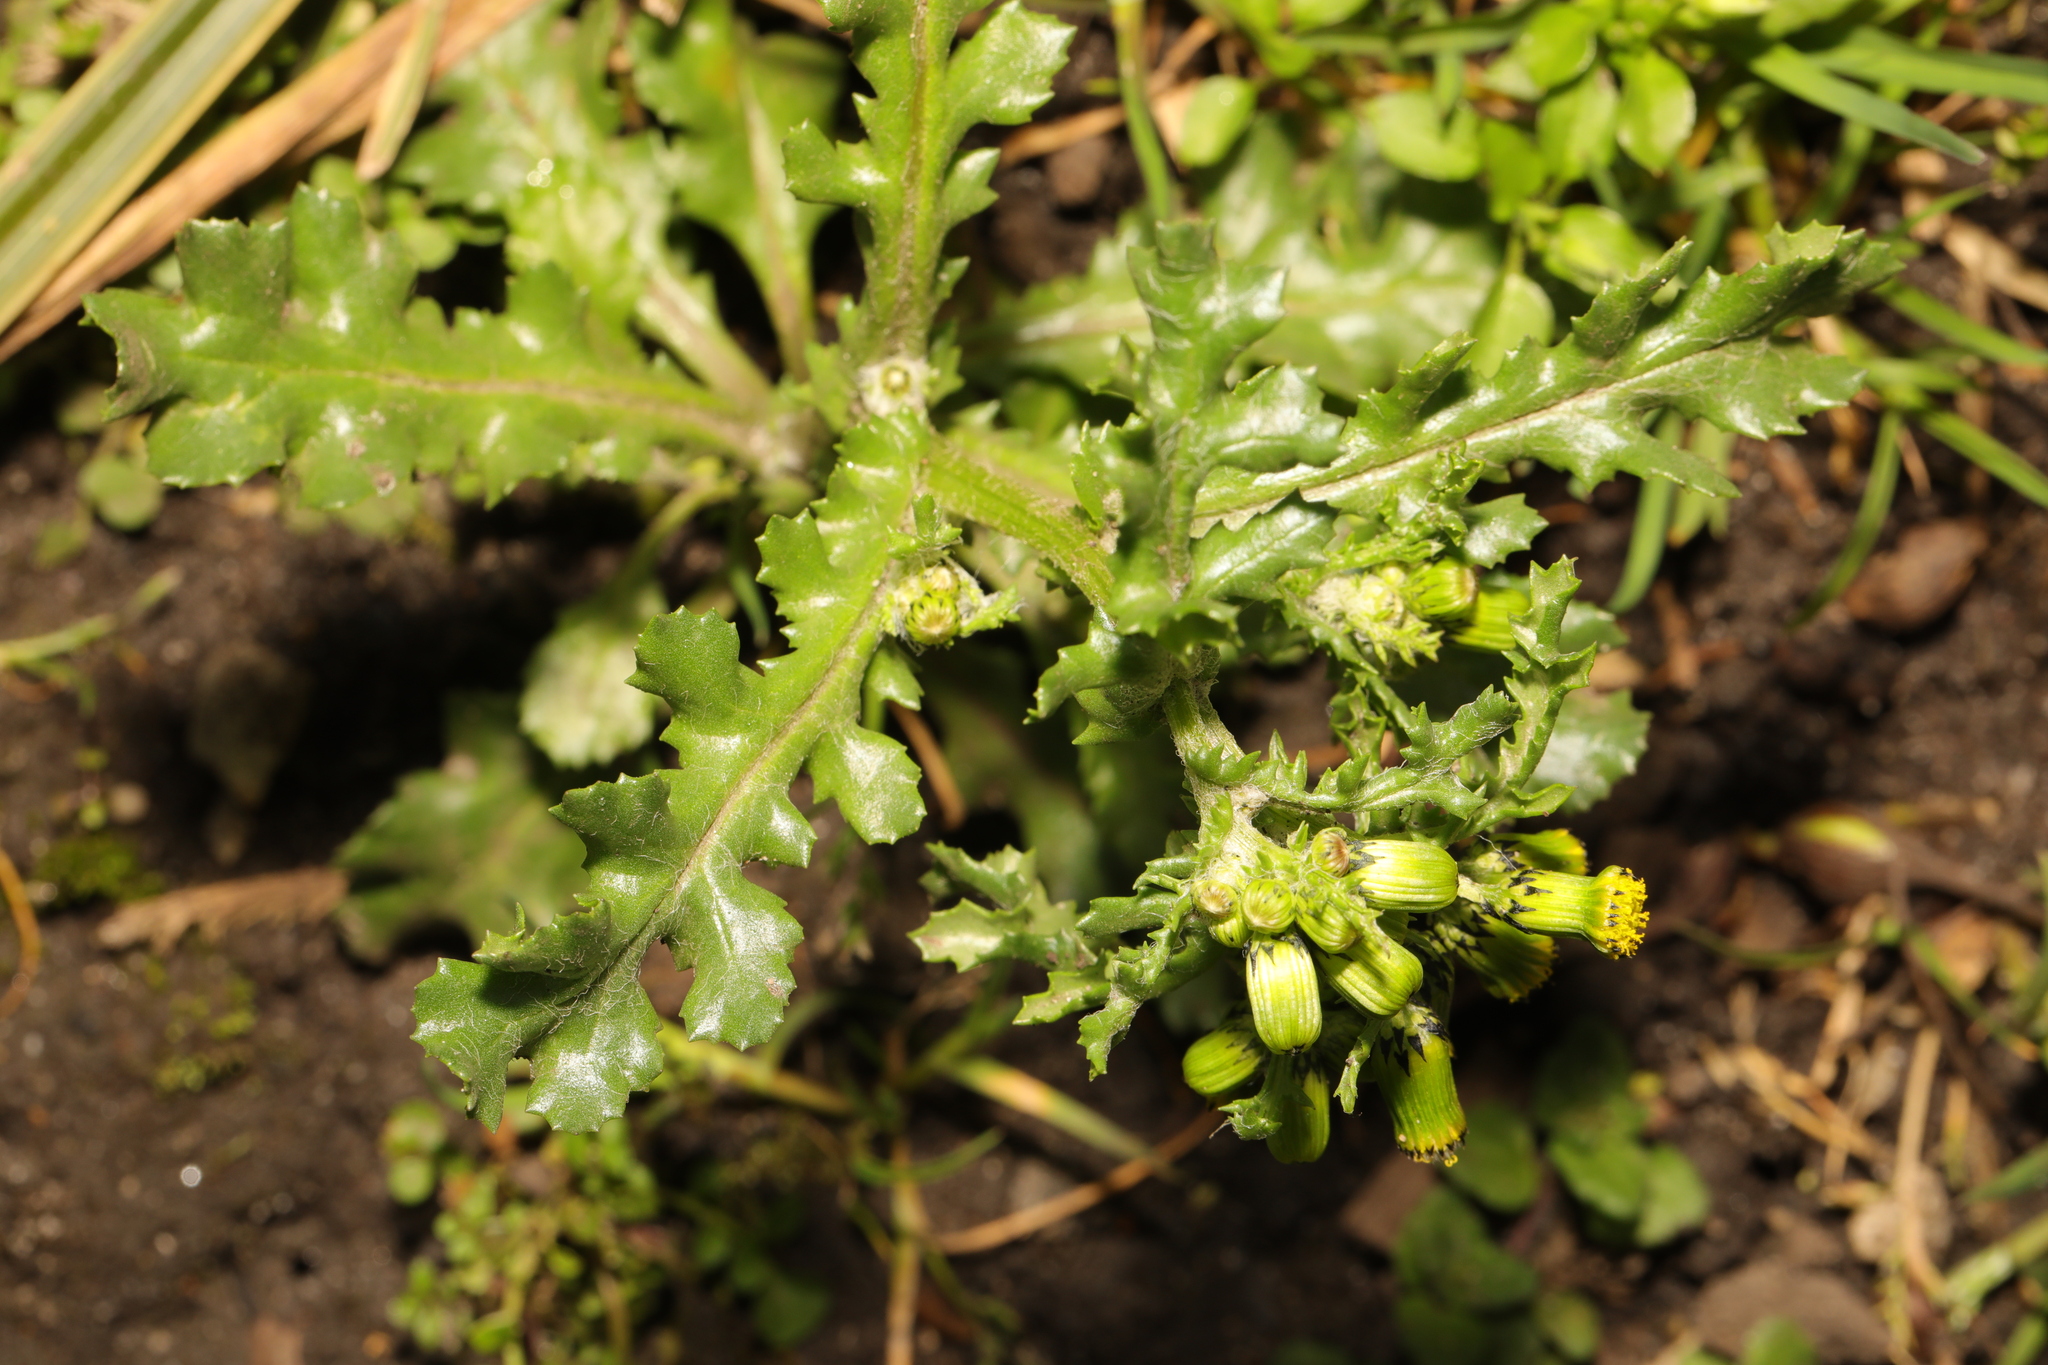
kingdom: Plantae
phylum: Tracheophyta
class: Magnoliopsida
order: Asterales
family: Asteraceae
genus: Senecio
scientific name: Senecio vulgaris
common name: Old-man-in-the-spring
